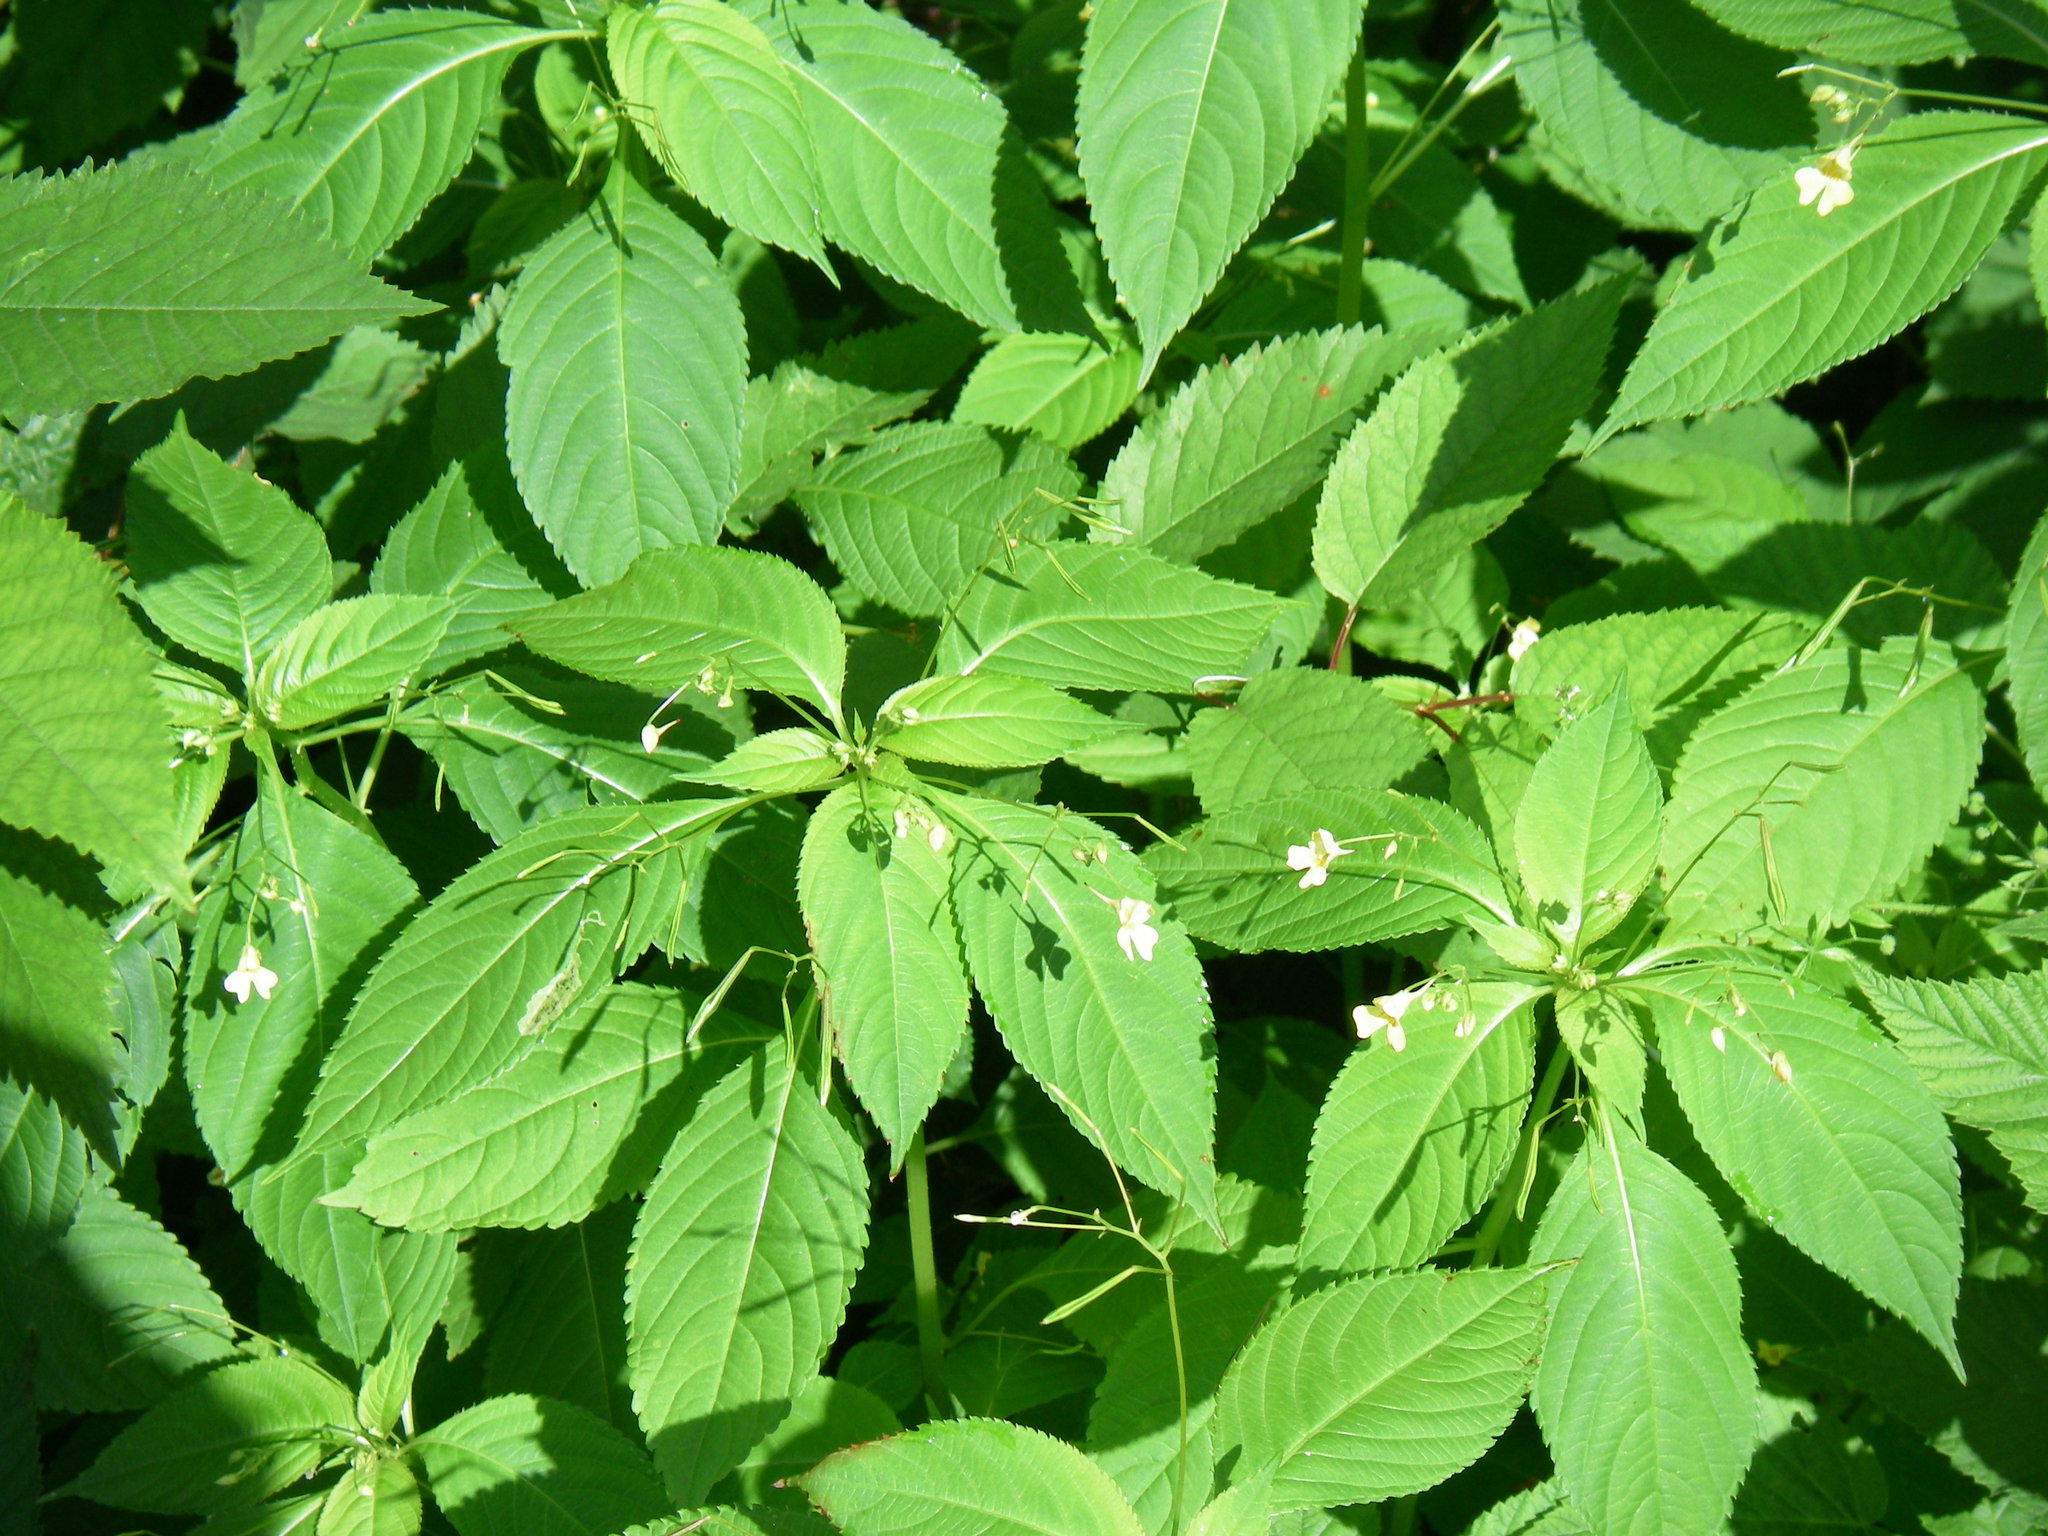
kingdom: Plantae
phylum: Tracheophyta
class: Magnoliopsida
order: Ericales
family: Balsaminaceae
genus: Impatiens
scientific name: Impatiens parviflora
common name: Small balsam
